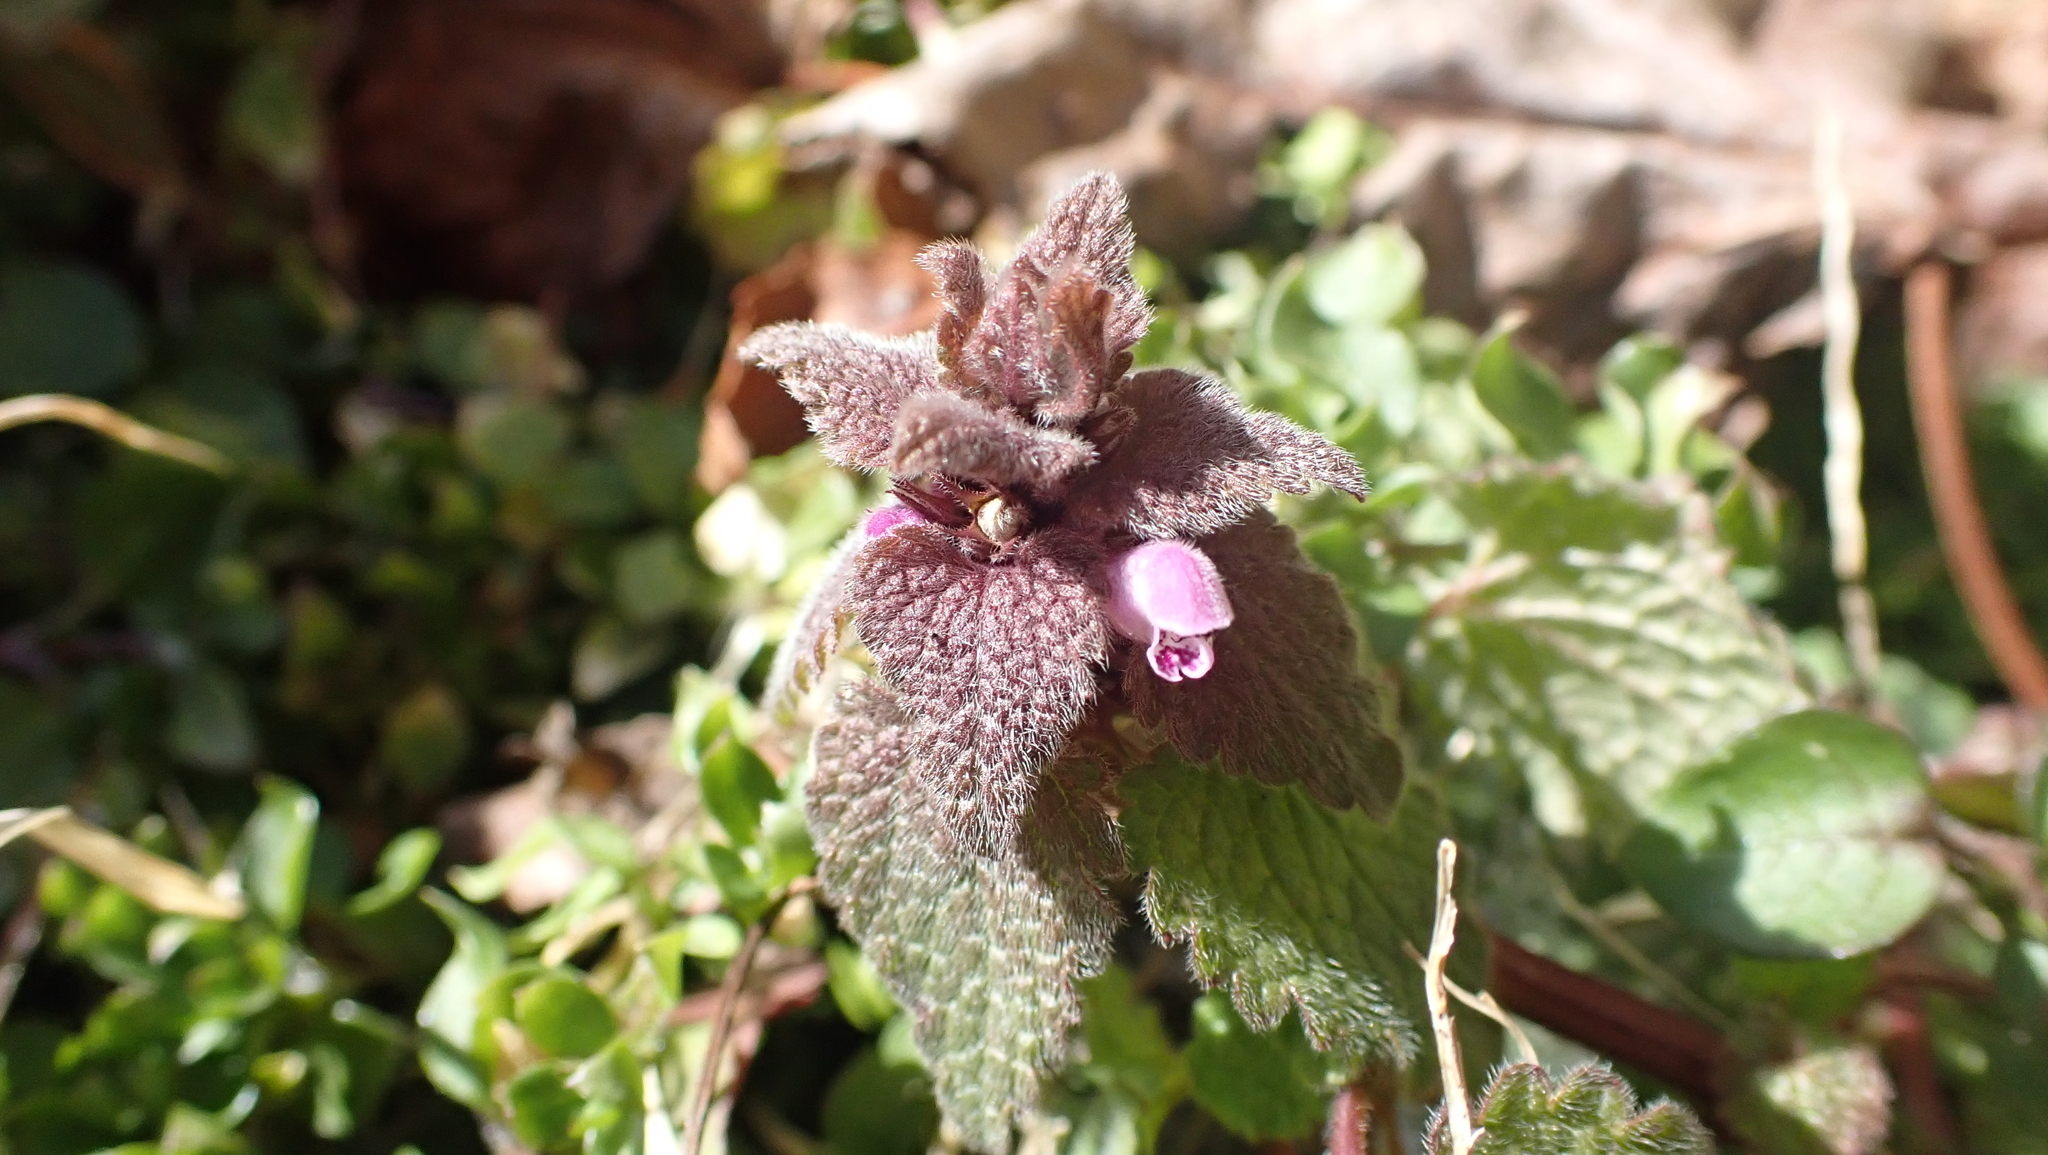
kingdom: Plantae
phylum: Tracheophyta
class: Magnoliopsida
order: Lamiales
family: Lamiaceae
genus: Lamium
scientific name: Lamium purpureum
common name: Red dead-nettle
